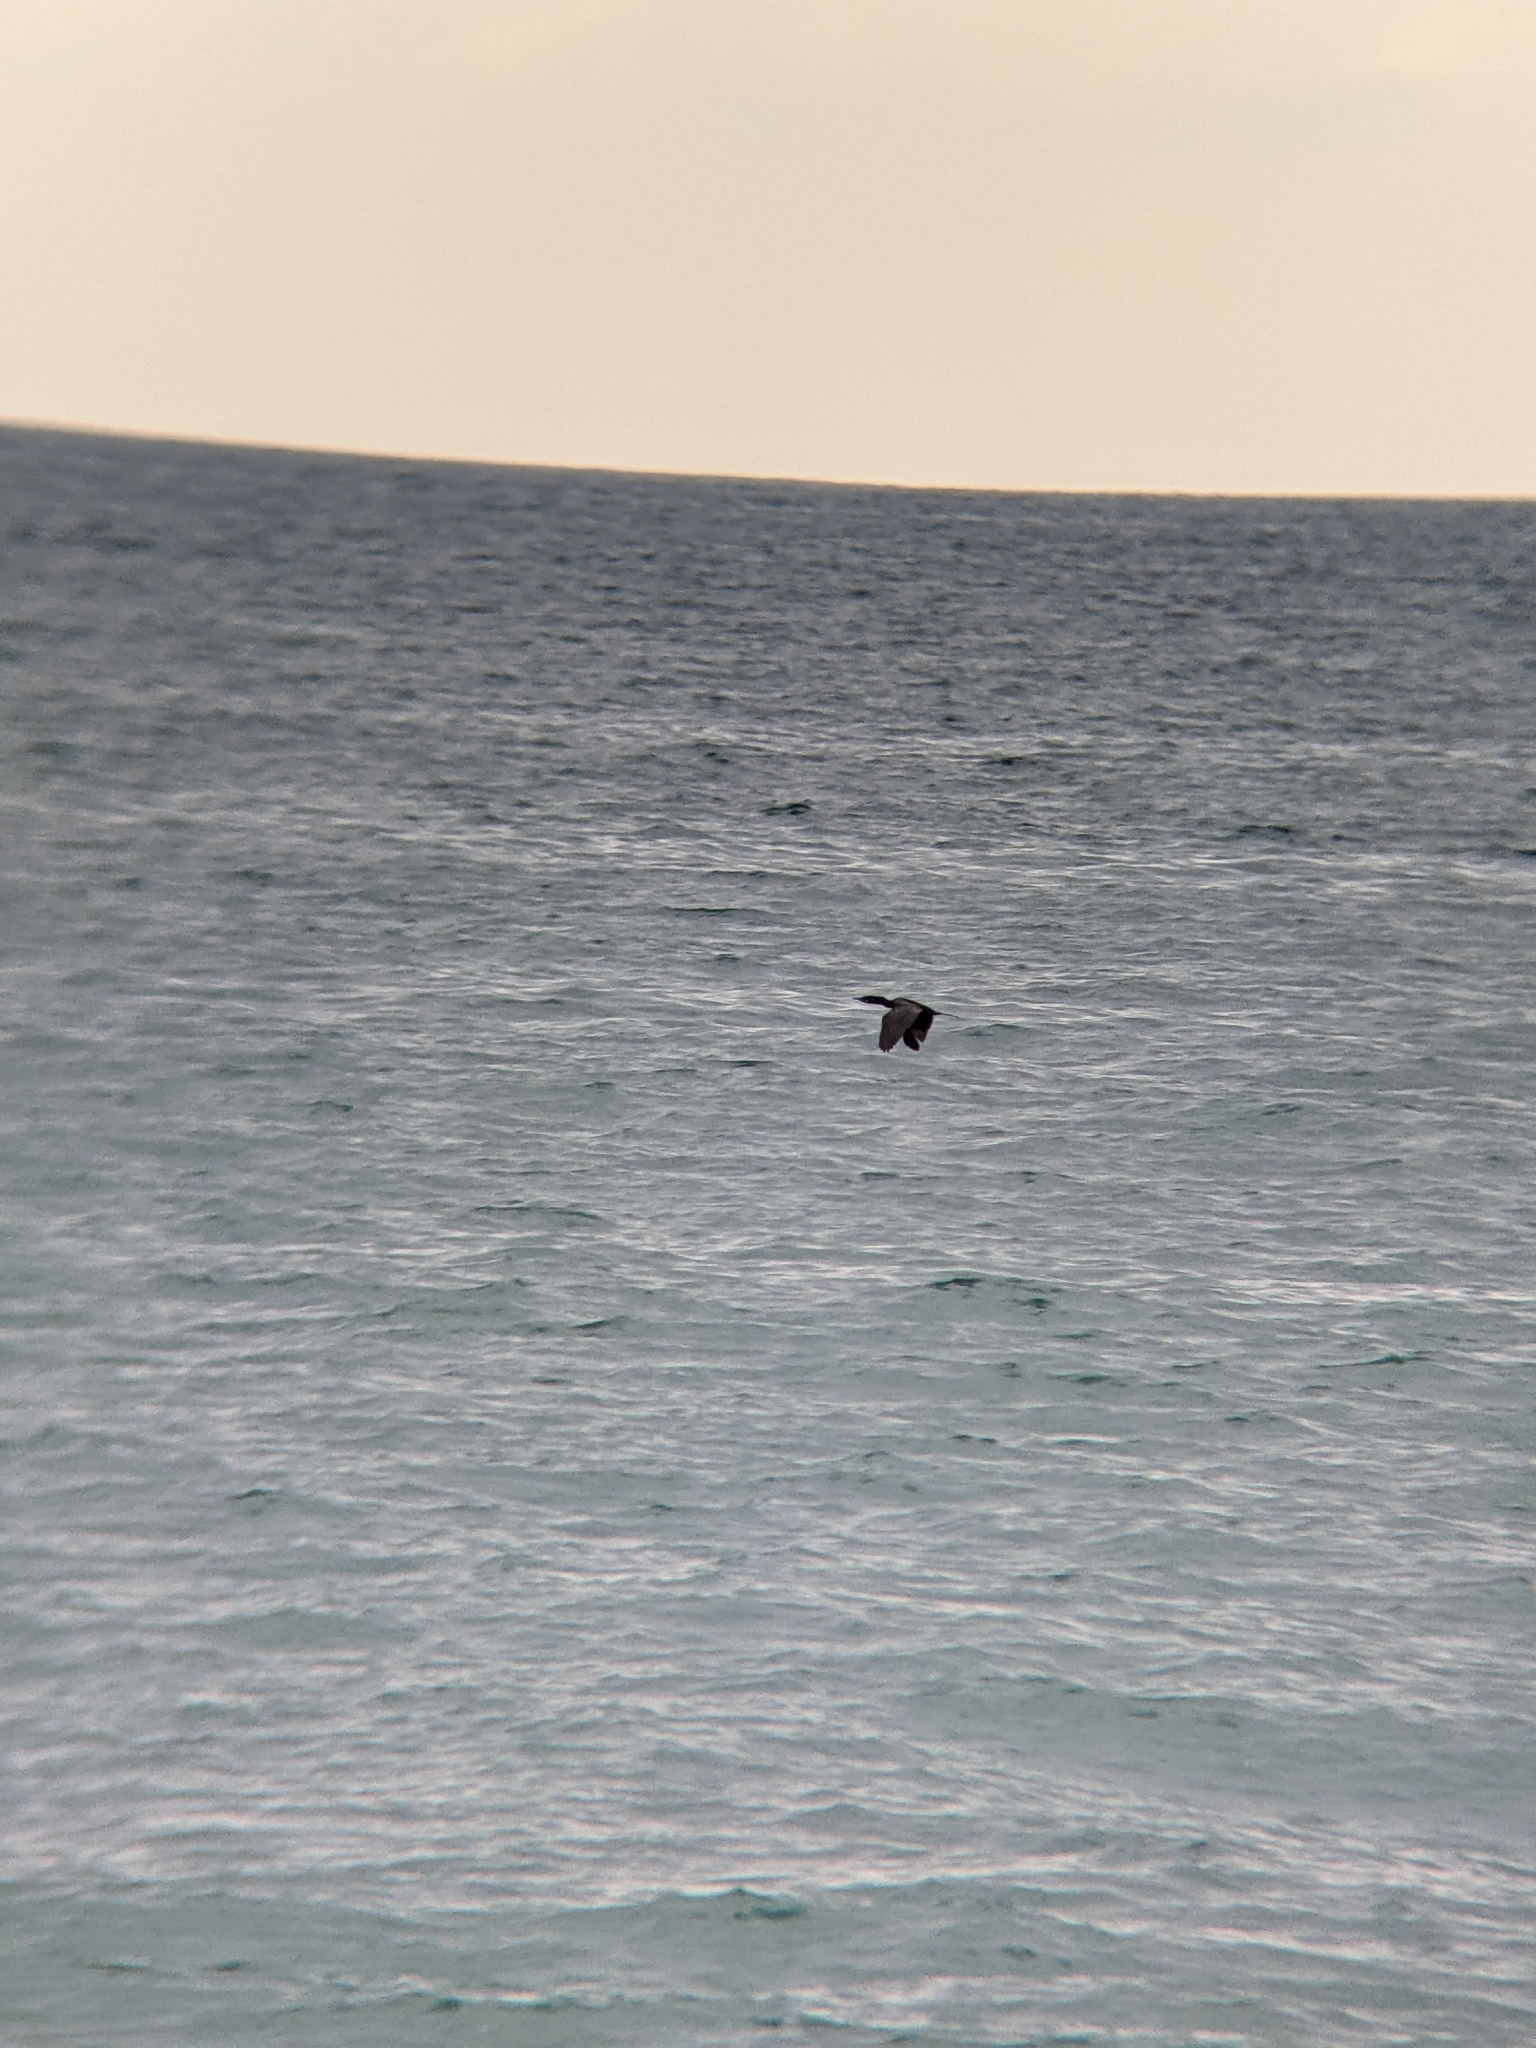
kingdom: Animalia
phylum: Chordata
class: Aves
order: Suliformes
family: Phalacrocoracidae
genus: Phalacrocorax
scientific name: Phalacrocorax brasilianus
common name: Neotropic cormorant
